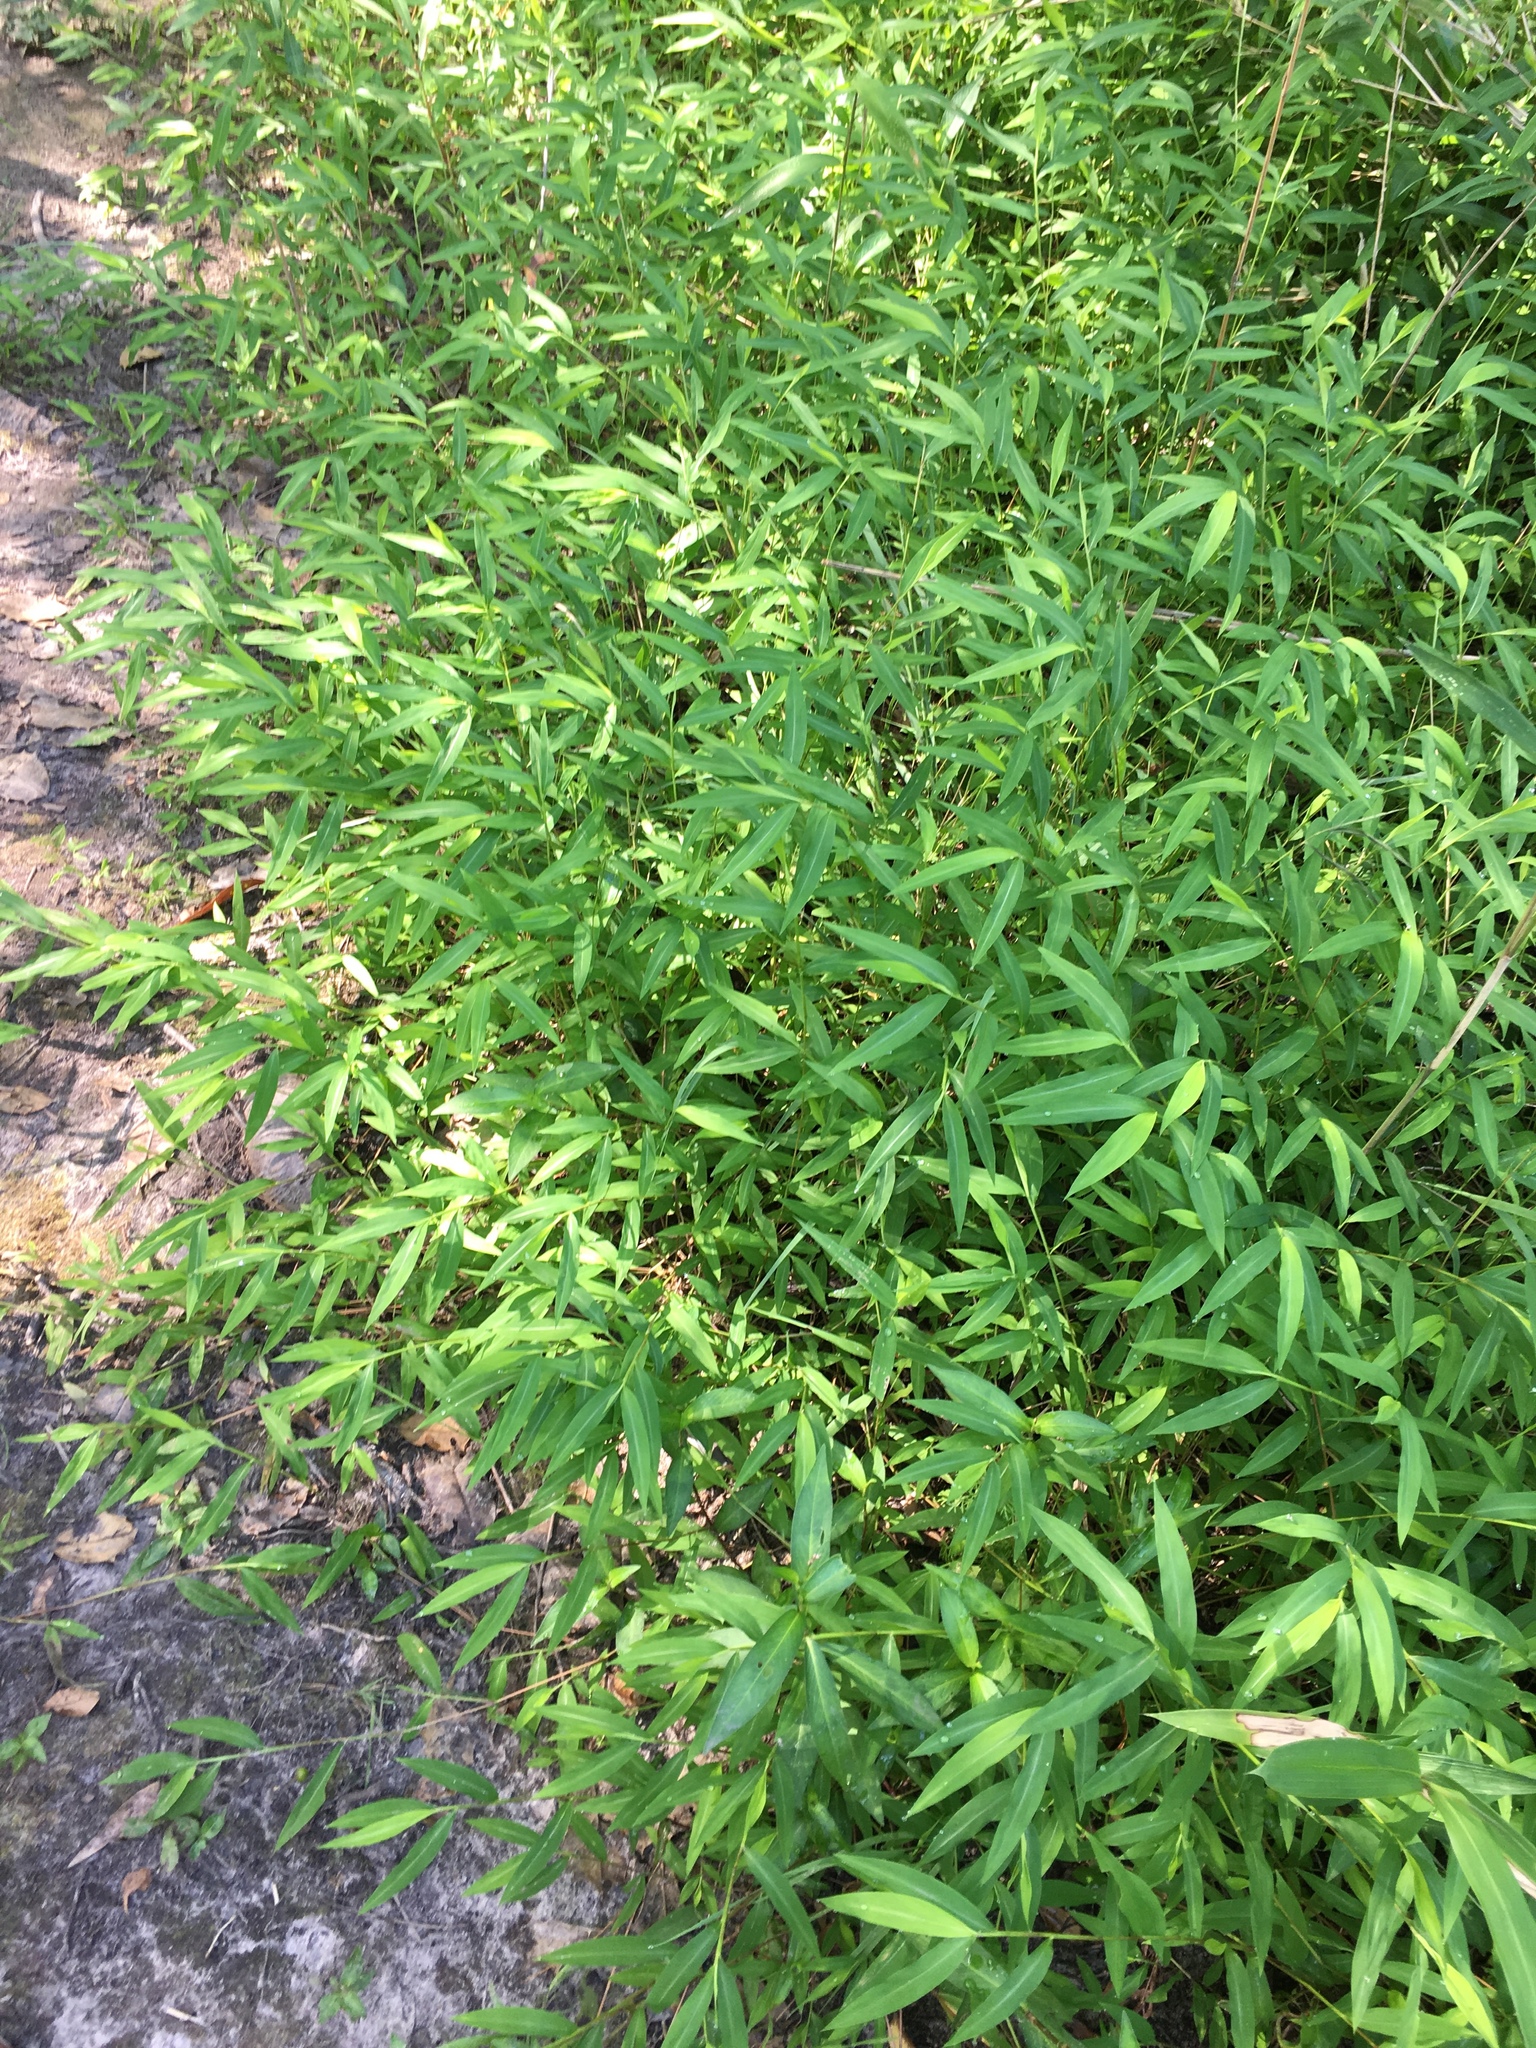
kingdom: Plantae
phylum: Tracheophyta
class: Liliopsida
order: Poales
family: Poaceae
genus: Microstegium
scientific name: Microstegium vimineum
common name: Japanese stiltgrass
